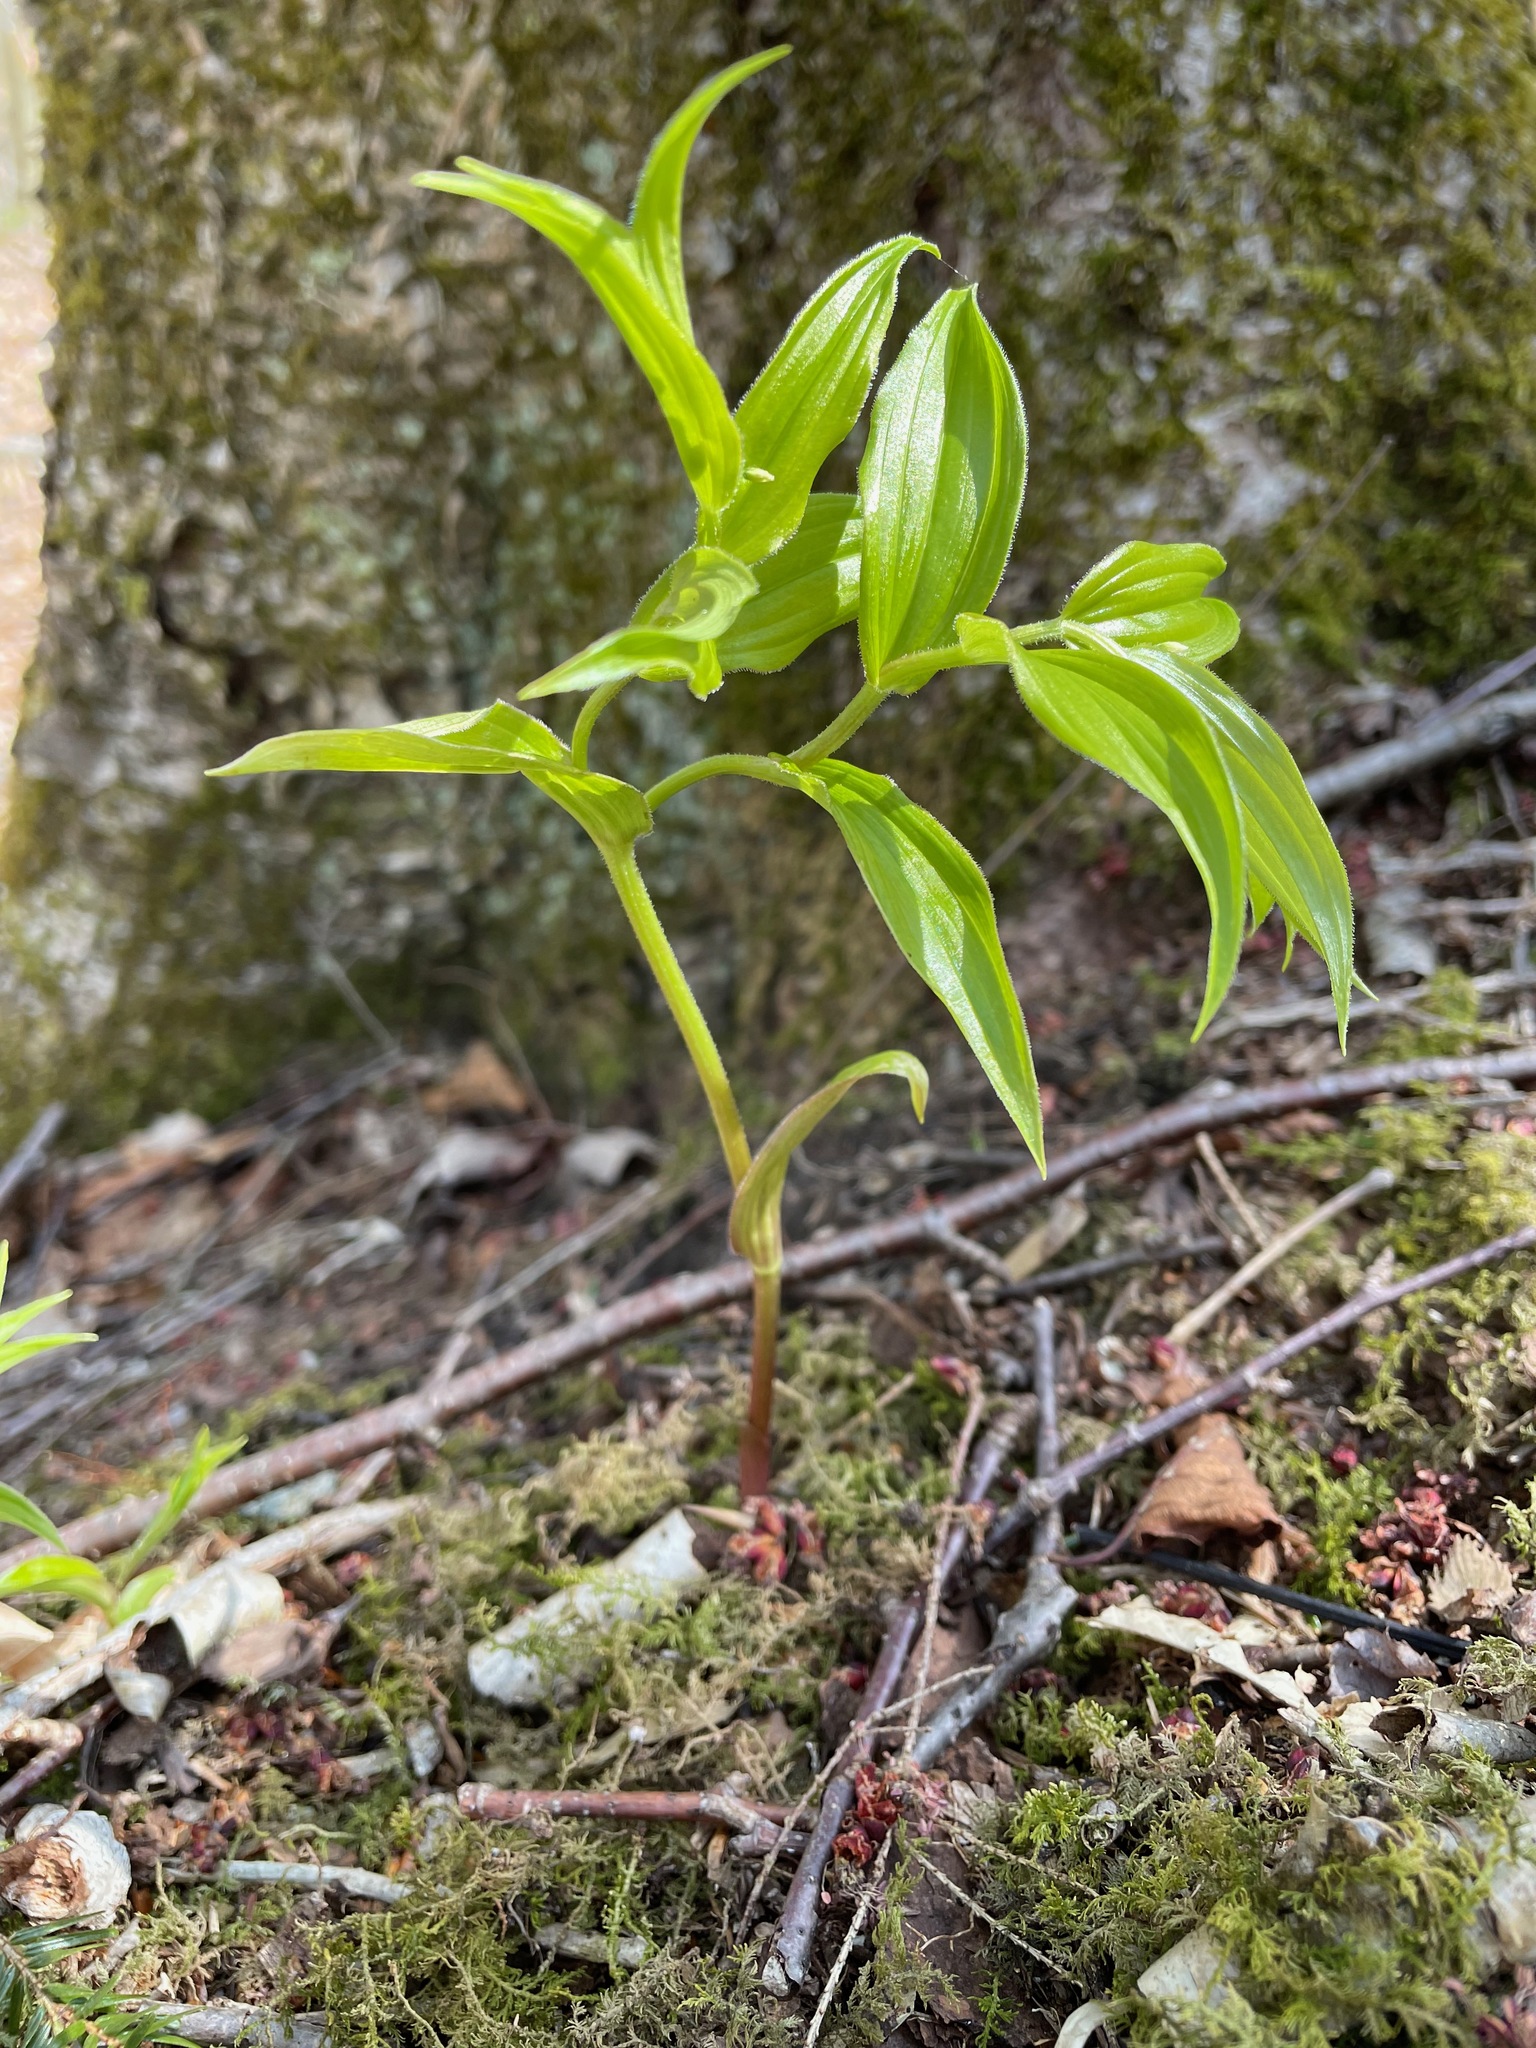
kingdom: Plantae
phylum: Tracheophyta
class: Liliopsida
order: Liliales
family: Liliaceae
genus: Streptopus
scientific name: Streptopus lanceolatus
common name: Rose mandarin
